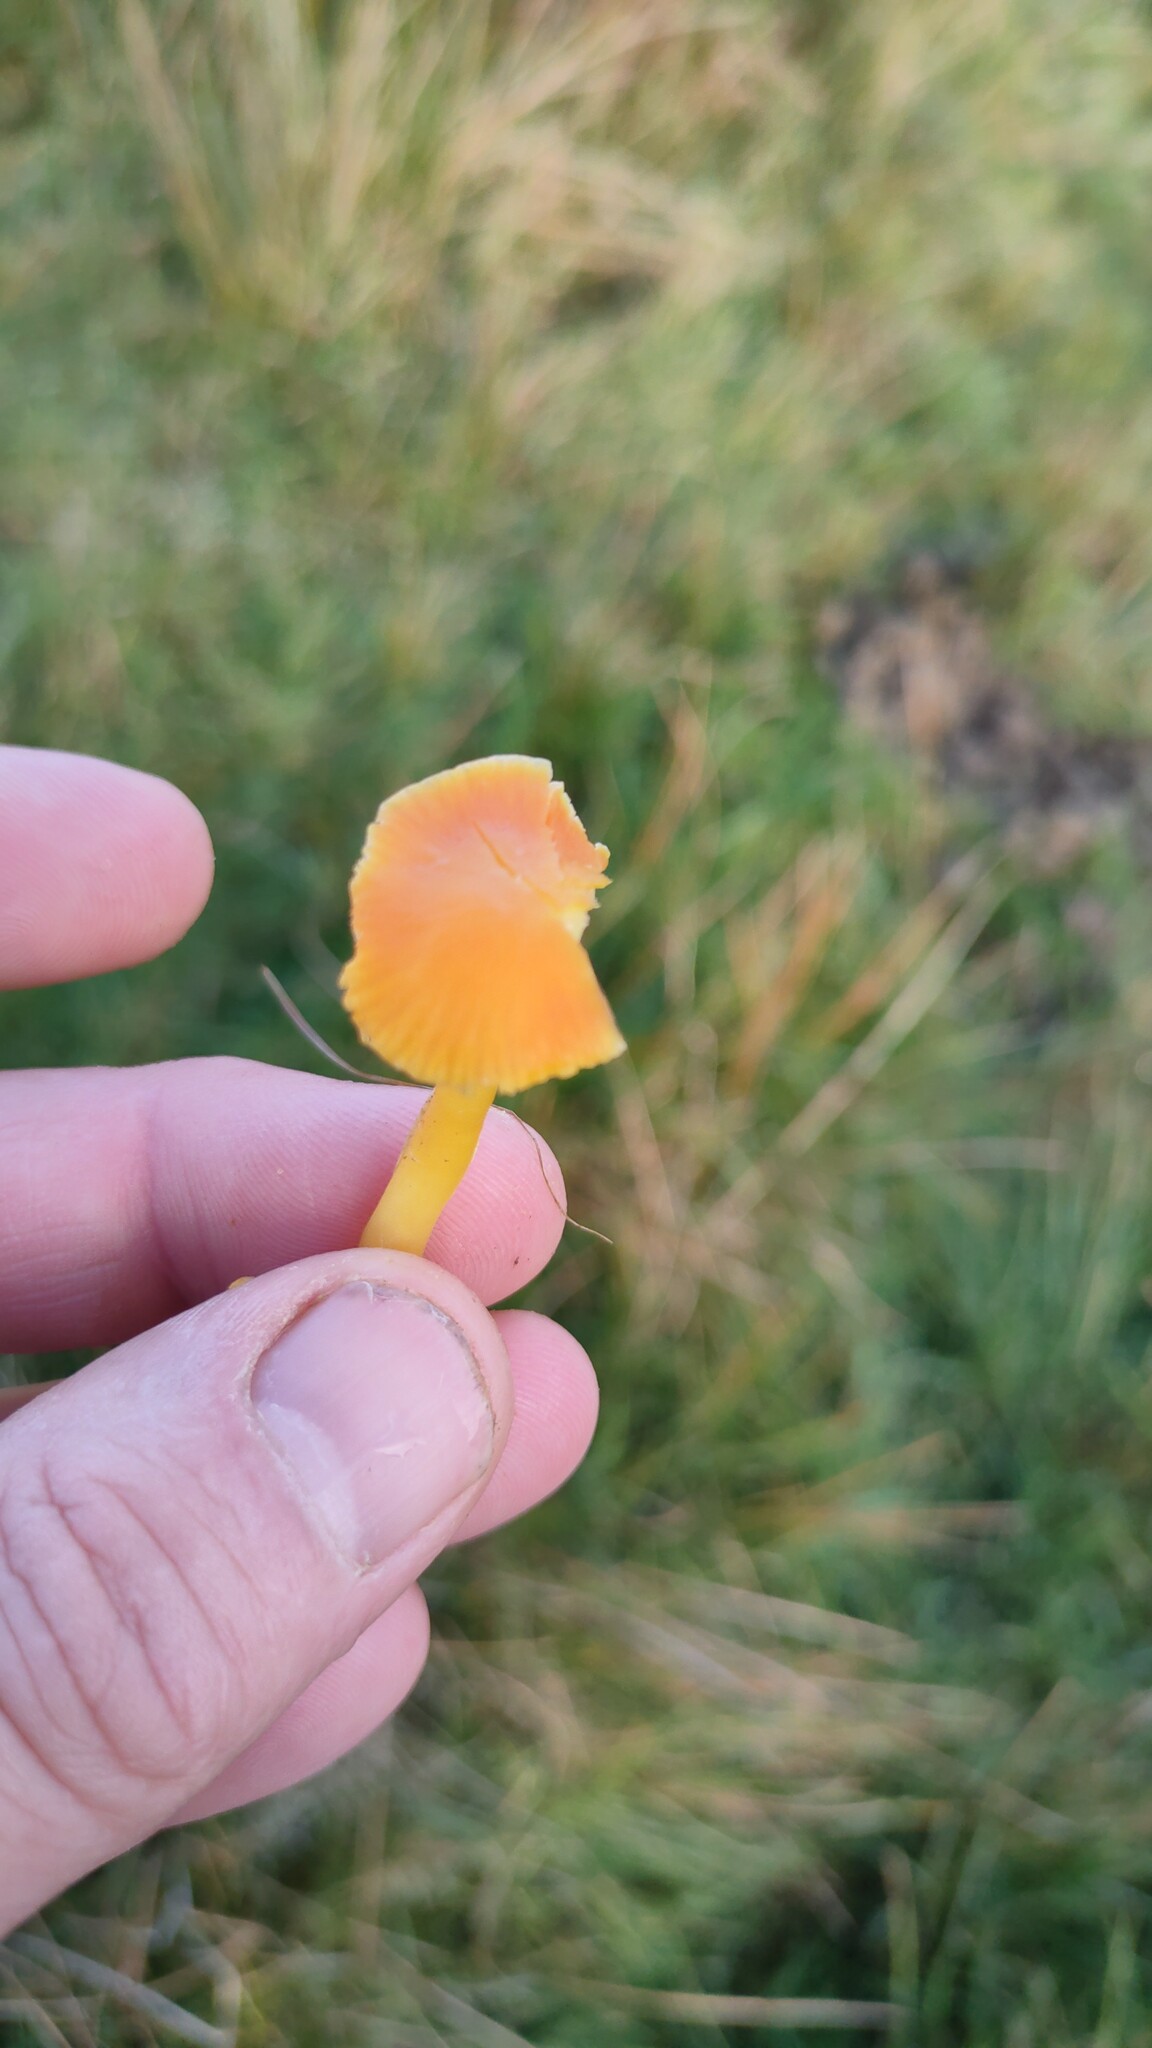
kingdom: Fungi
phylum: Basidiomycota
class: Agaricomycetes
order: Agaricales
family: Hygrophoraceae
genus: Hygrocybe
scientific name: Hygrocybe ceracea
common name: Butter waxcap
